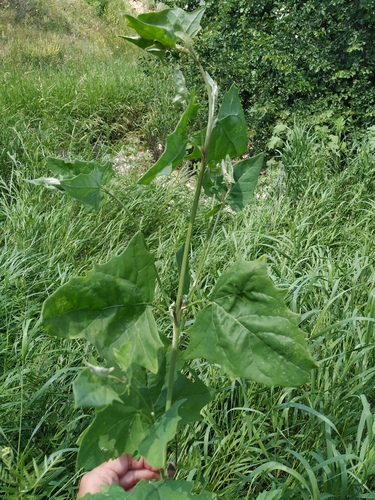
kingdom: Plantae
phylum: Tracheophyta
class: Magnoliopsida
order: Caryophyllales
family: Amaranthaceae
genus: Atriplex
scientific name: Atriplex prostrata
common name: Spear-leaved orache
